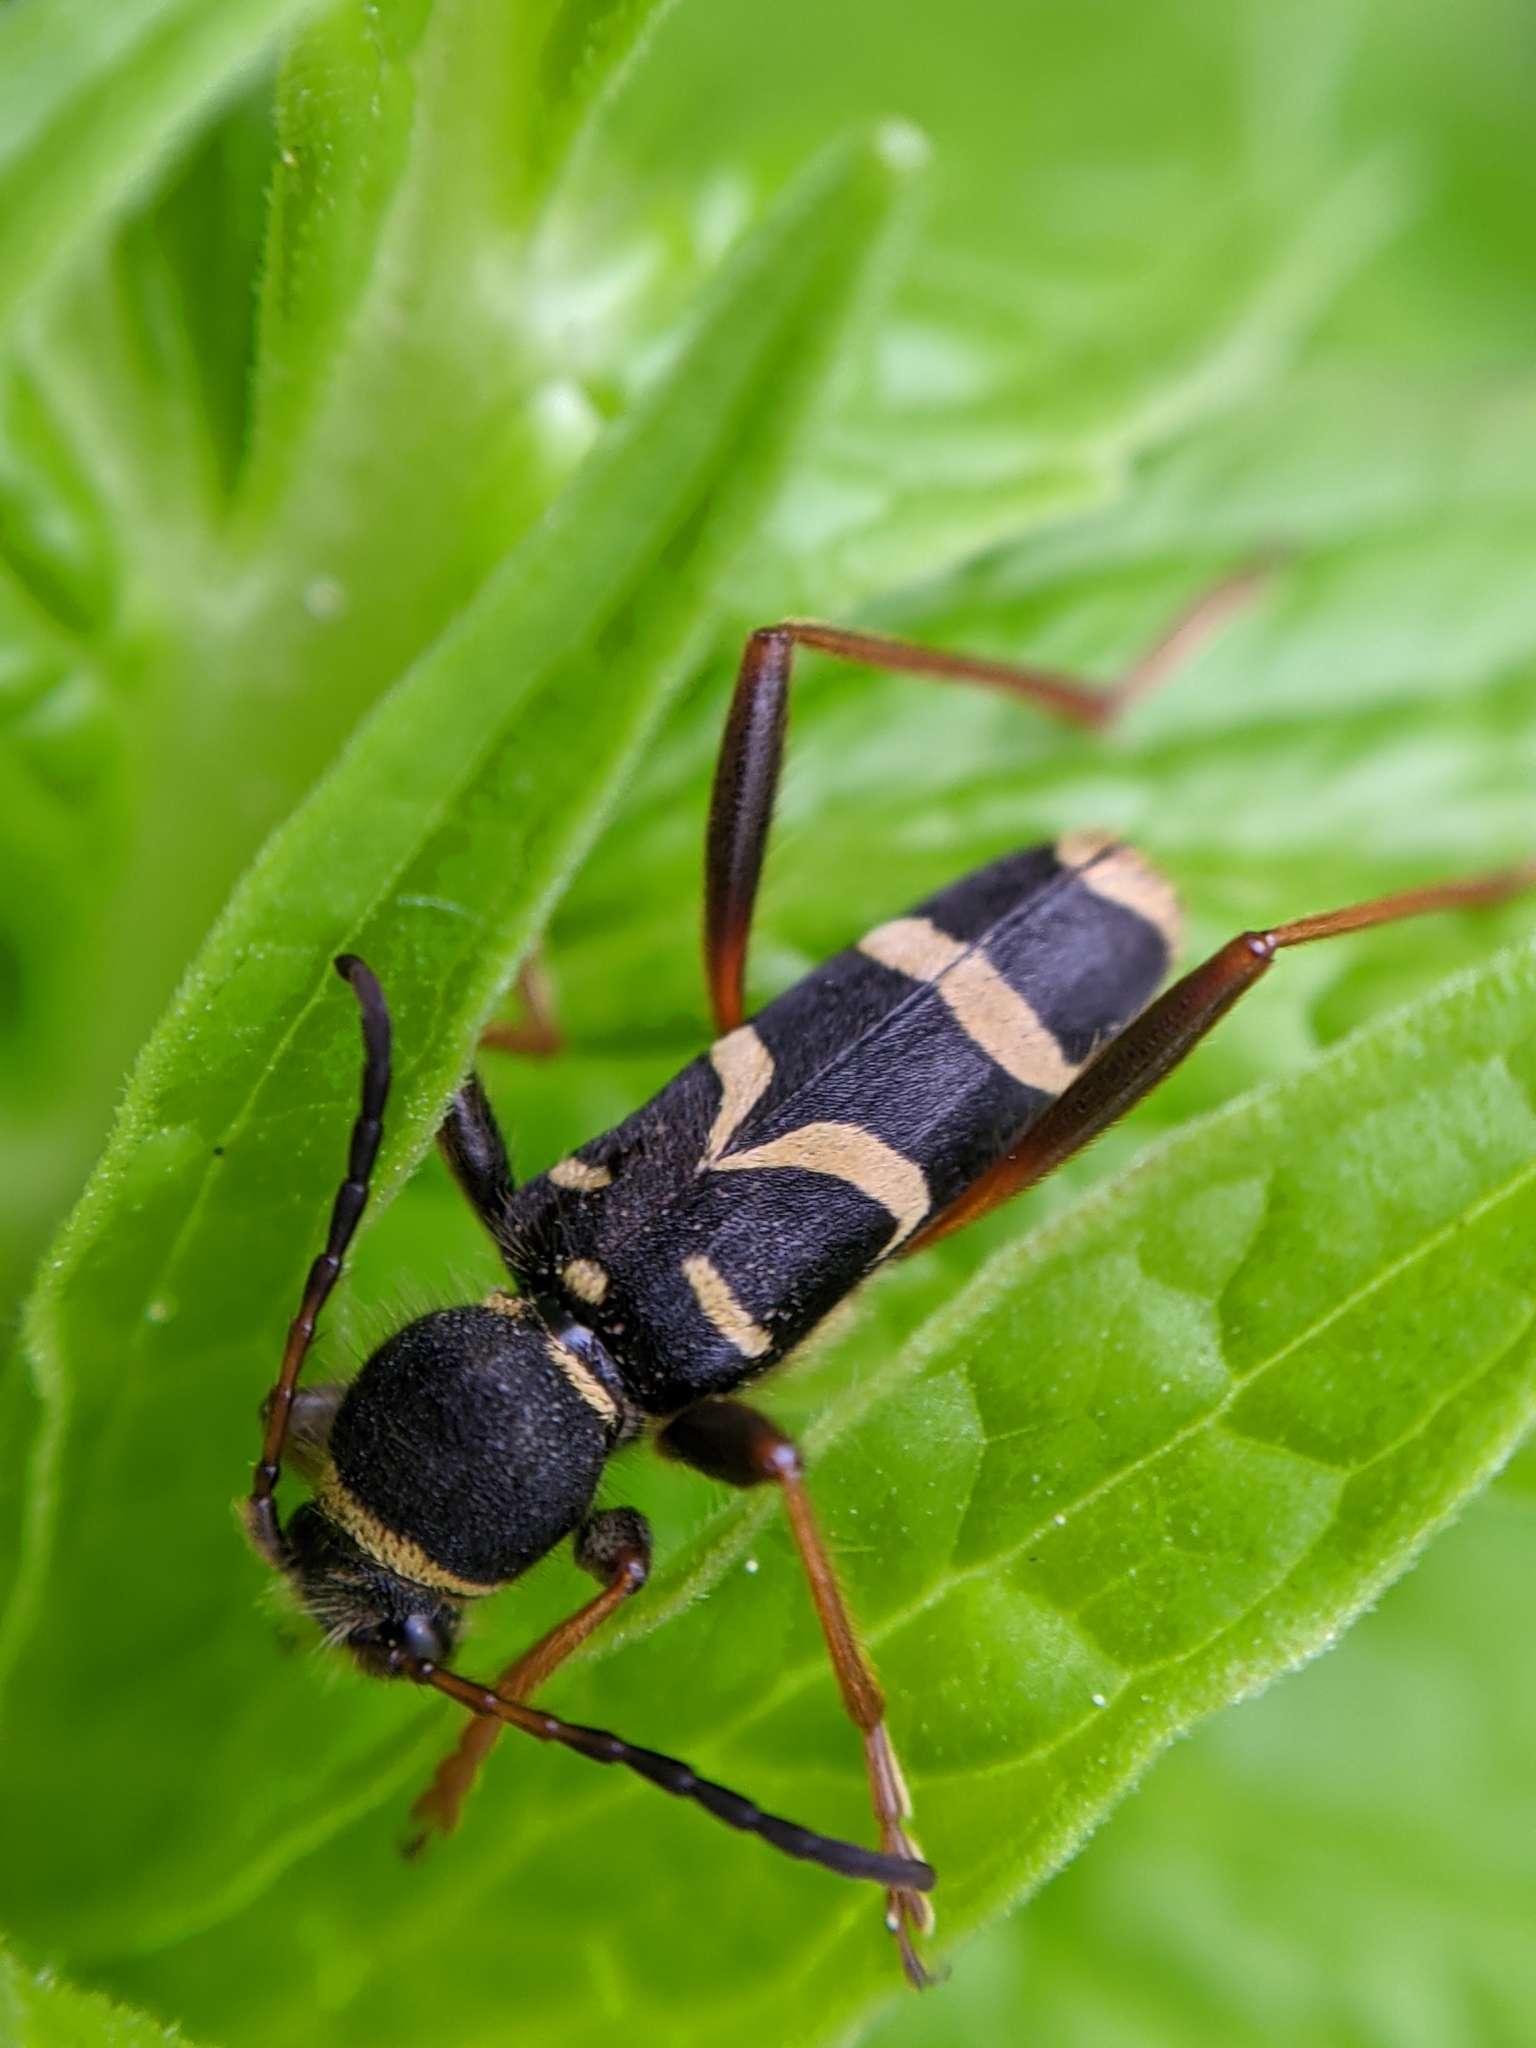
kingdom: Animalia
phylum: Arthropoda
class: Insecta
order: Coleoptera
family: Cerambycidae
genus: Clytus
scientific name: Clytus arietis
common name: Wasp beetle
